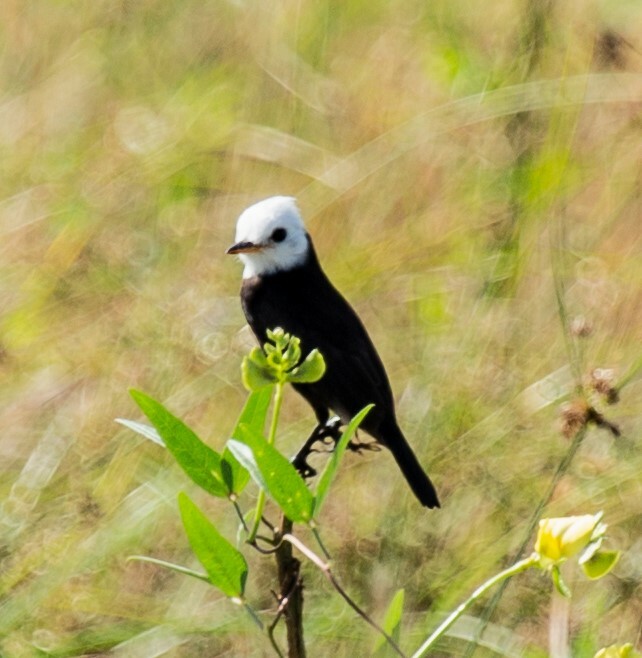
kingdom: Animalia
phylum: Chordata
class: Aves
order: Passeriformes
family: Tyrannidae
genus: Arundinicola
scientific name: Arundinicola leucocephala
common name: White-headed marsh tyrant
